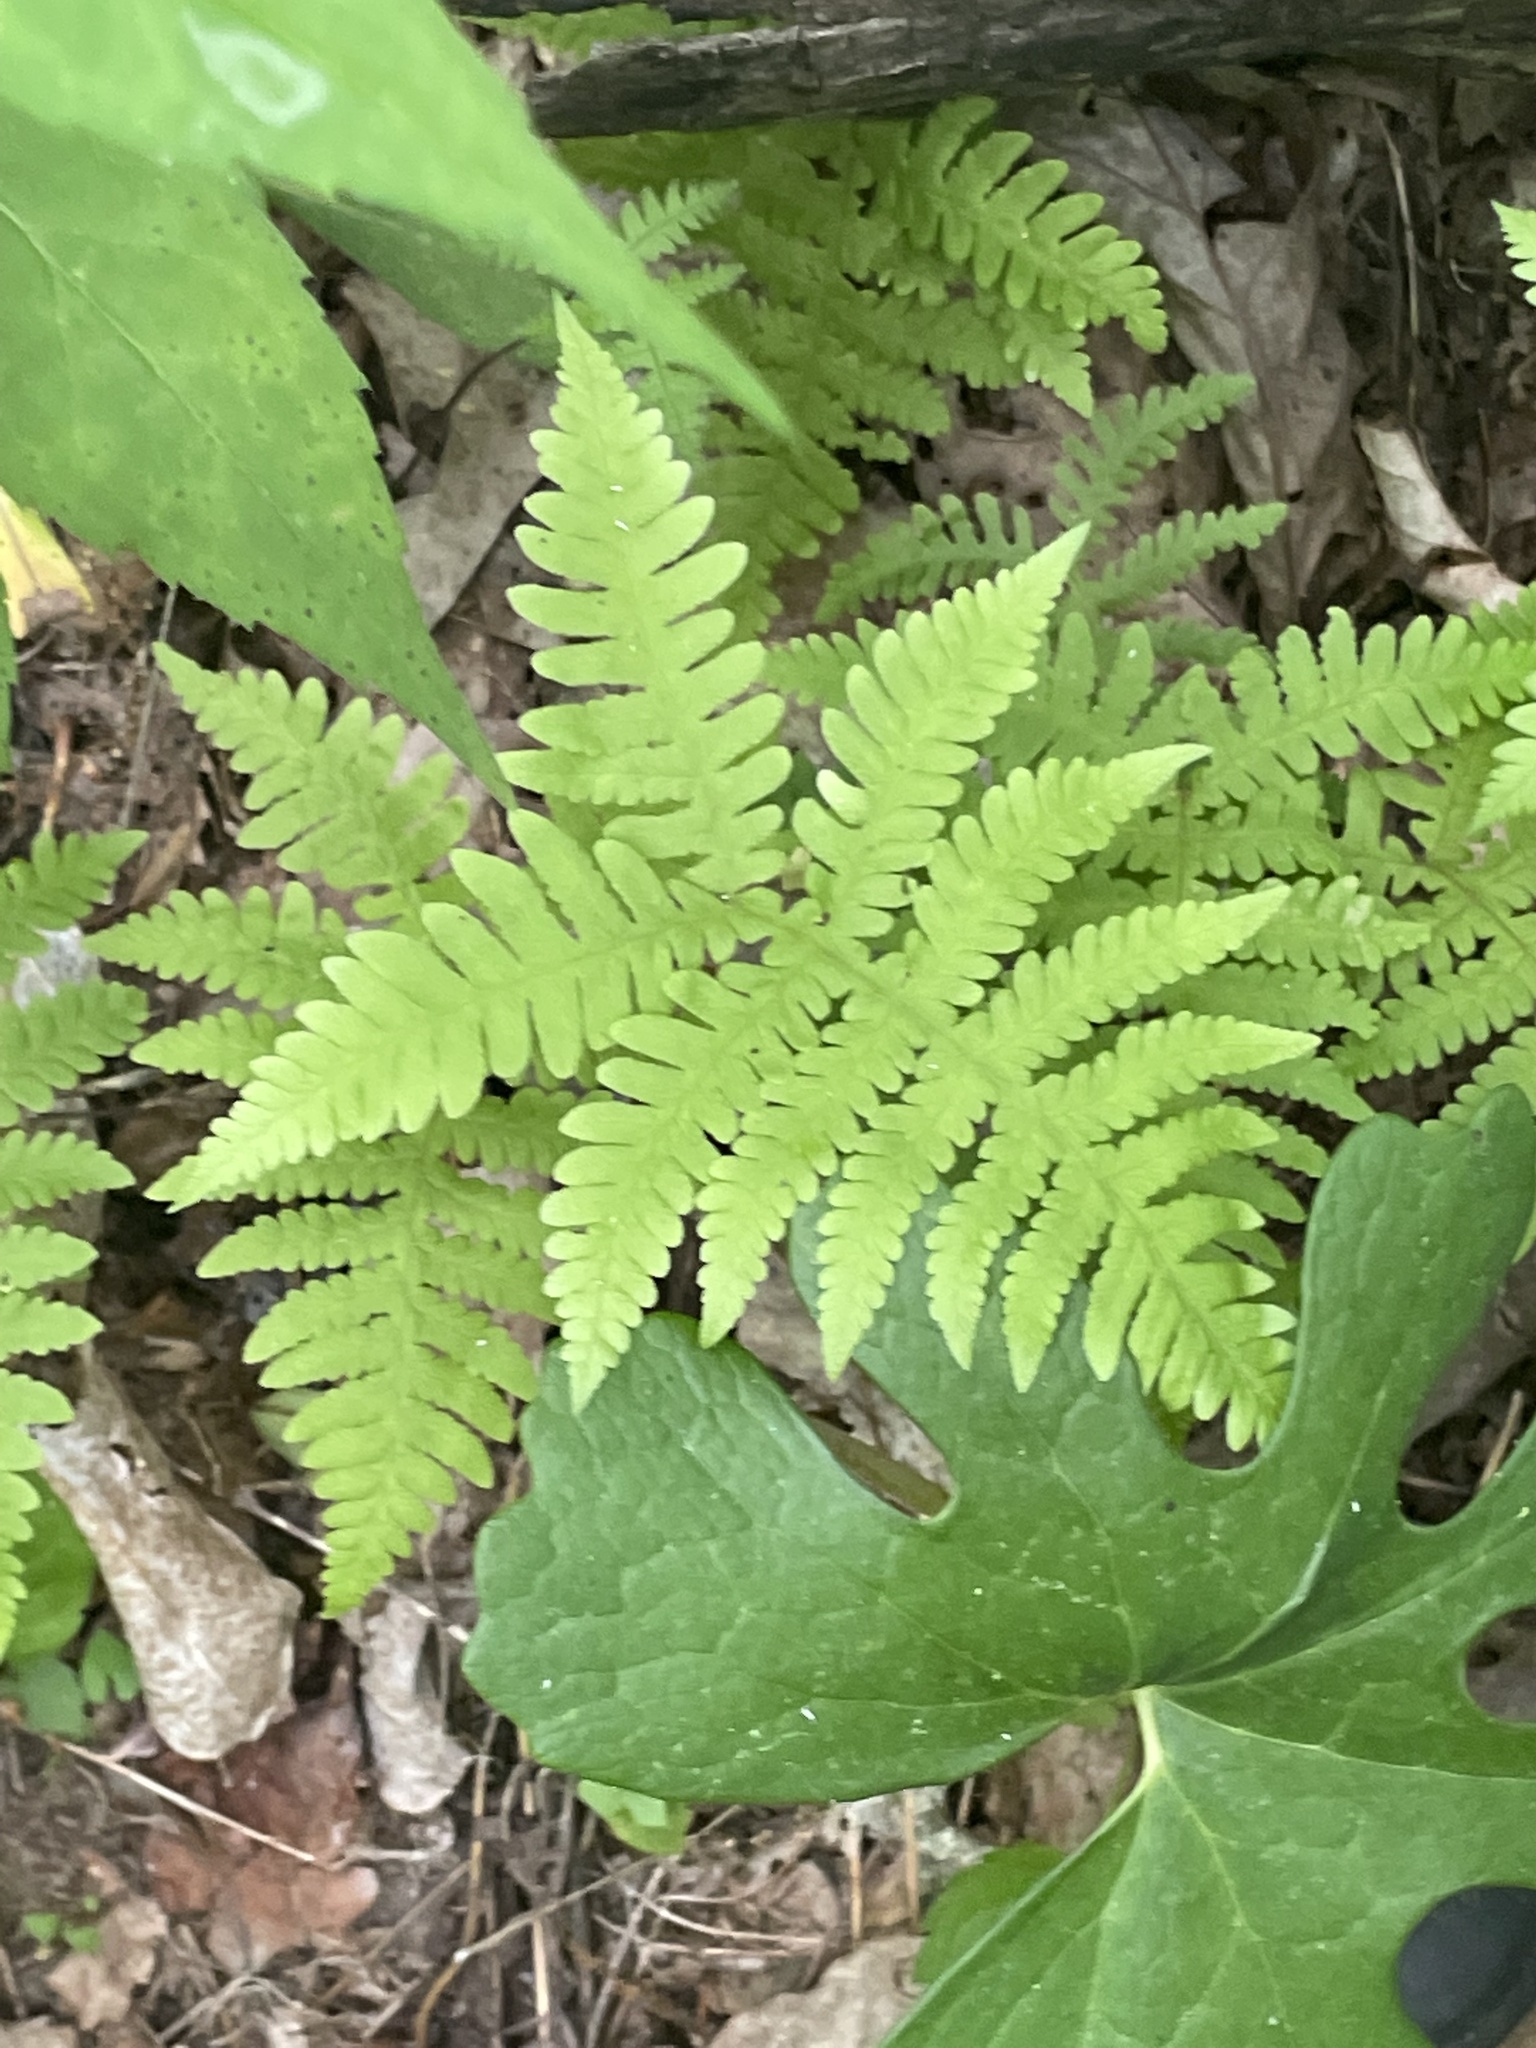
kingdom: Plantae
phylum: Tracheophyta
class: Polypodiopsida
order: Polypodiales
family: Thelypteridaceae
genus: Phegopteris
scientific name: Phegopteris hexagonoptera
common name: Broad beech fern
